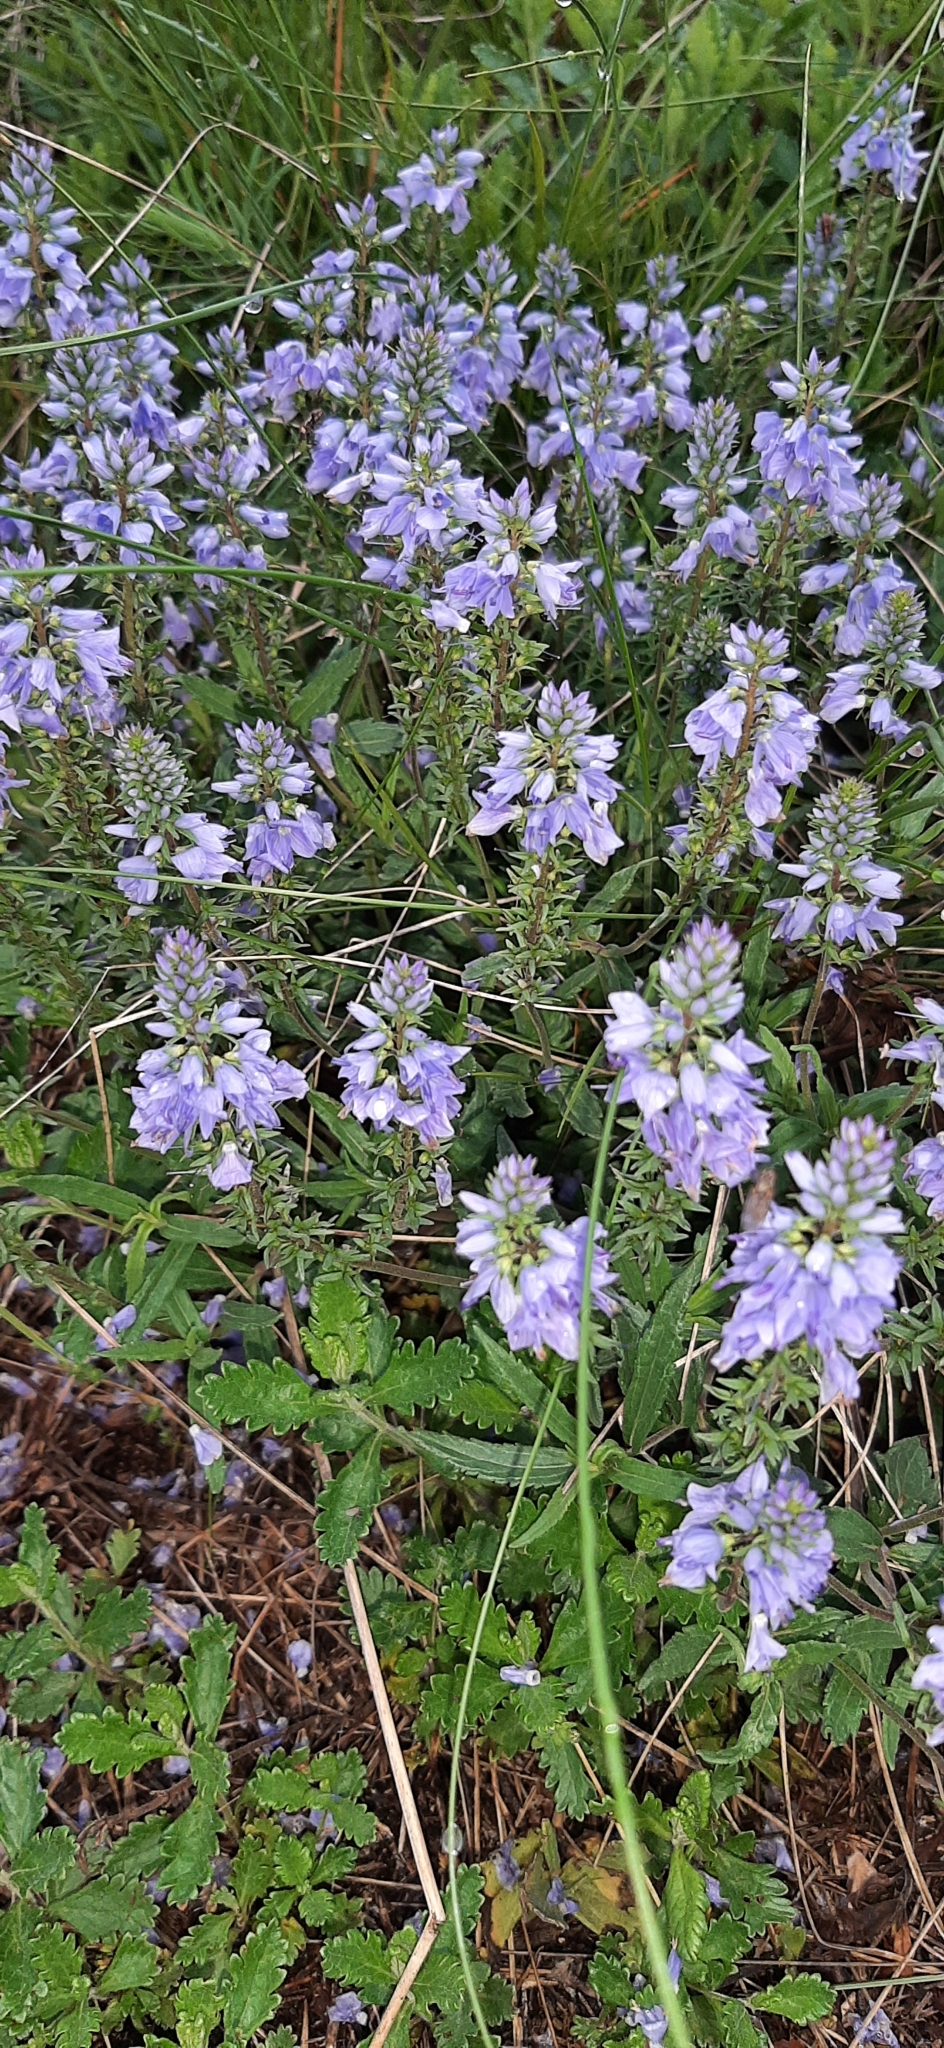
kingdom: Plantae
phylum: Tracheophyta
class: Magnoliopsida
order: Lamiales
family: Plantaginaceae
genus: Veronica
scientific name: Veronica prostrata
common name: Prostrate speedwell
